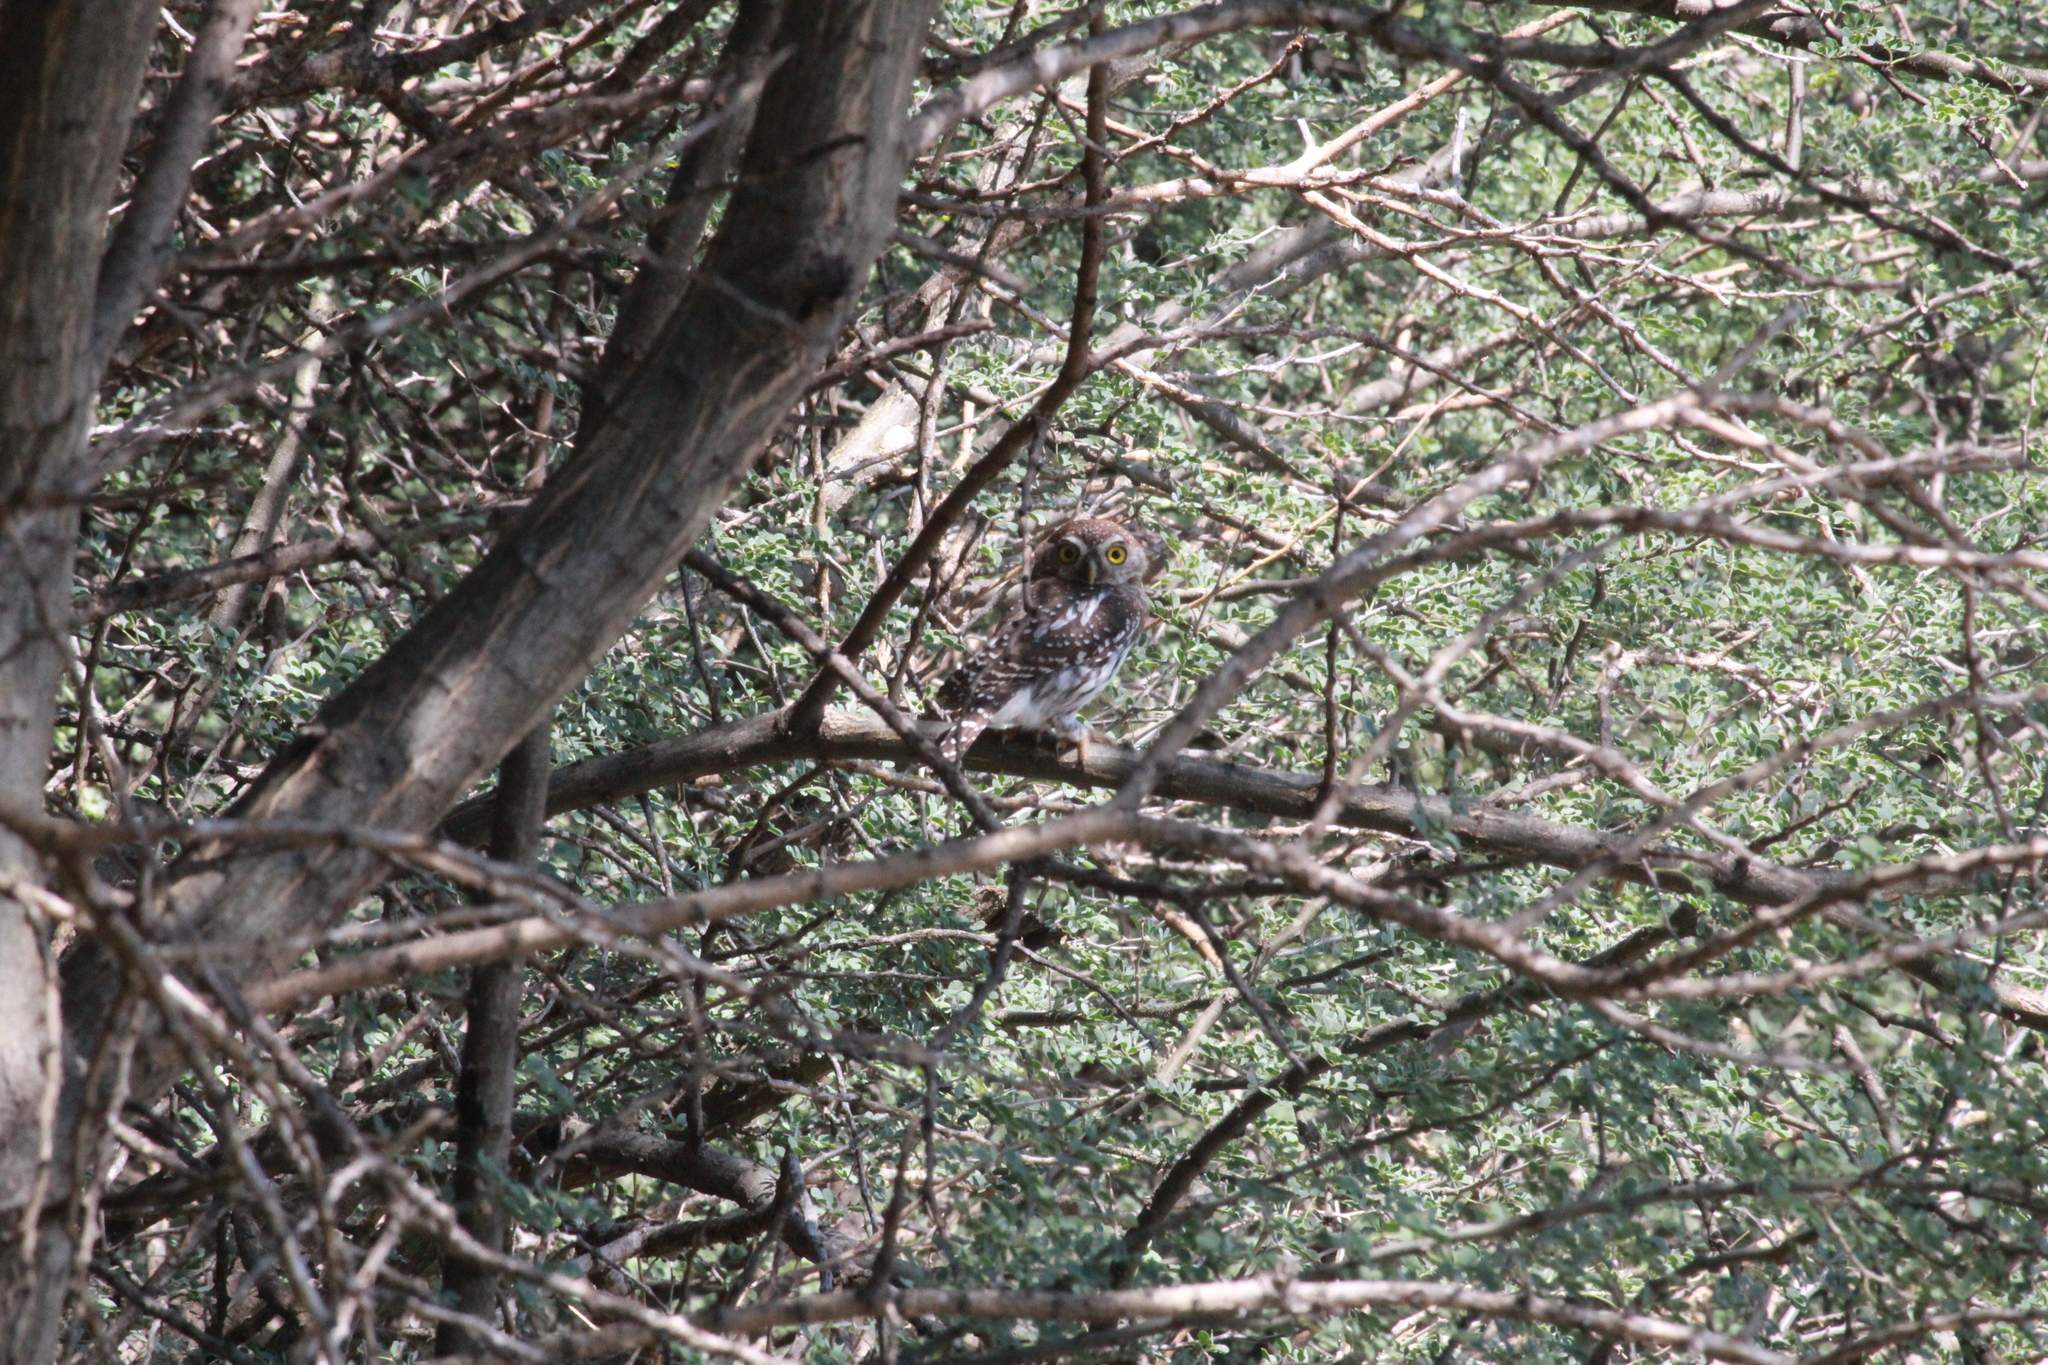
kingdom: Animalia
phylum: Chordata
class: Aves
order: Strigiformes
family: Strigidae
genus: Glaucidium
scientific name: Glaucidium perlatum
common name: Pearl-spotted owlet
